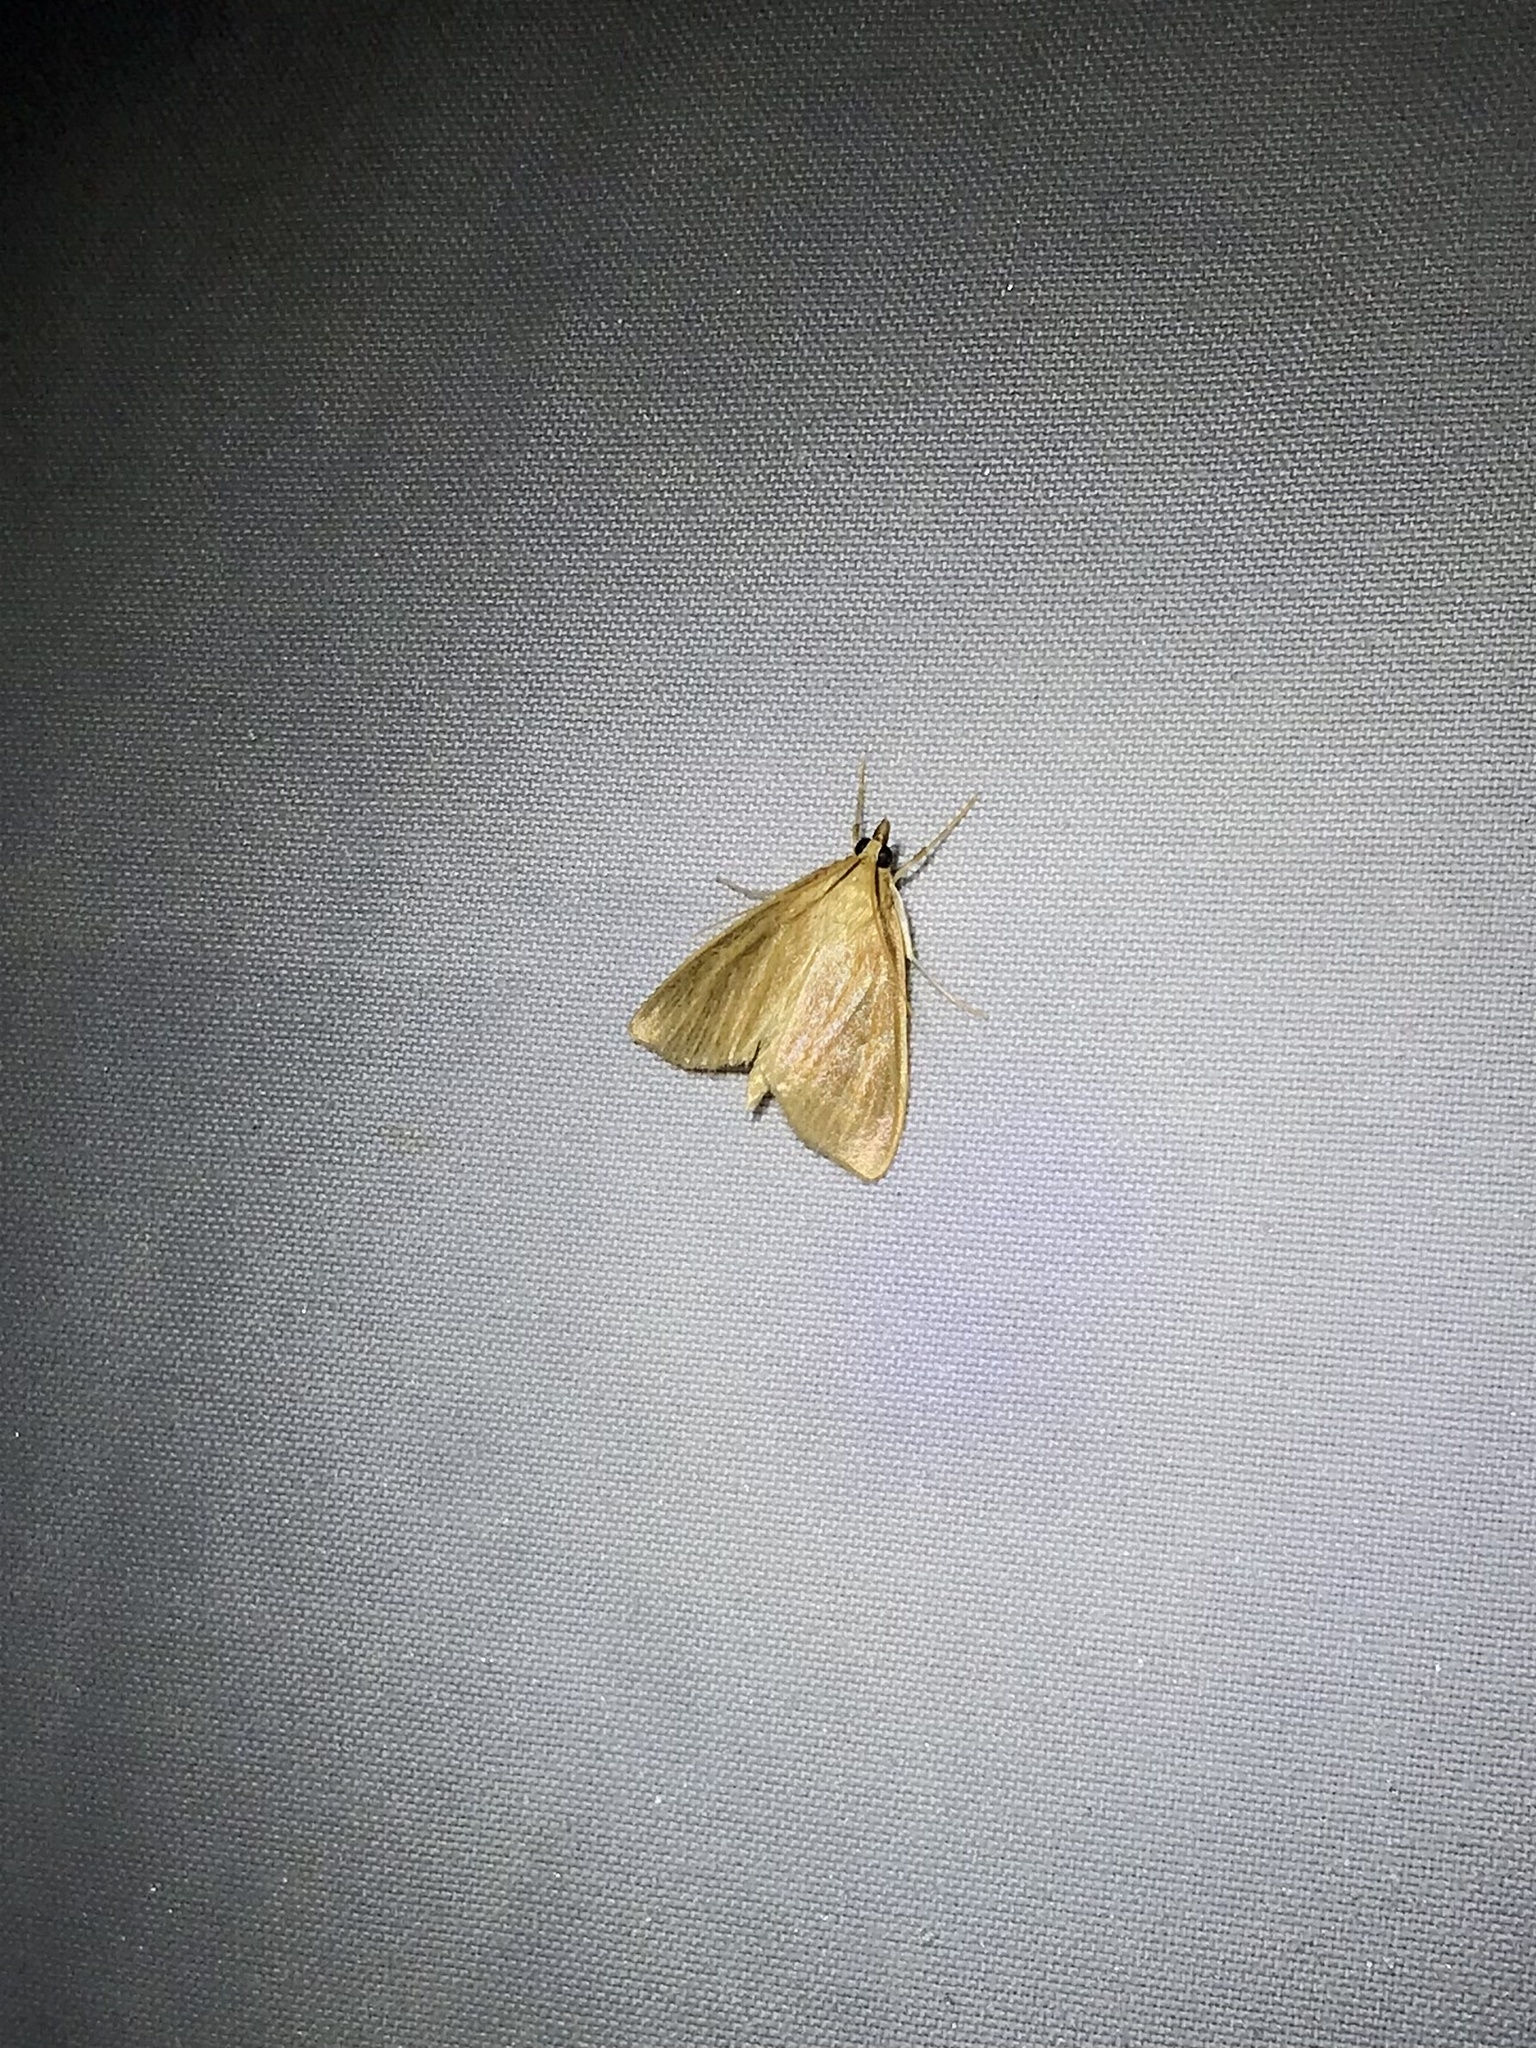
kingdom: Animalia
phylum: Arthropoda
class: Insecta
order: Lepidoptera
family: Crambidae
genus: Nascia
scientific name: Nascia acutellus
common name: Streaked orange moth
